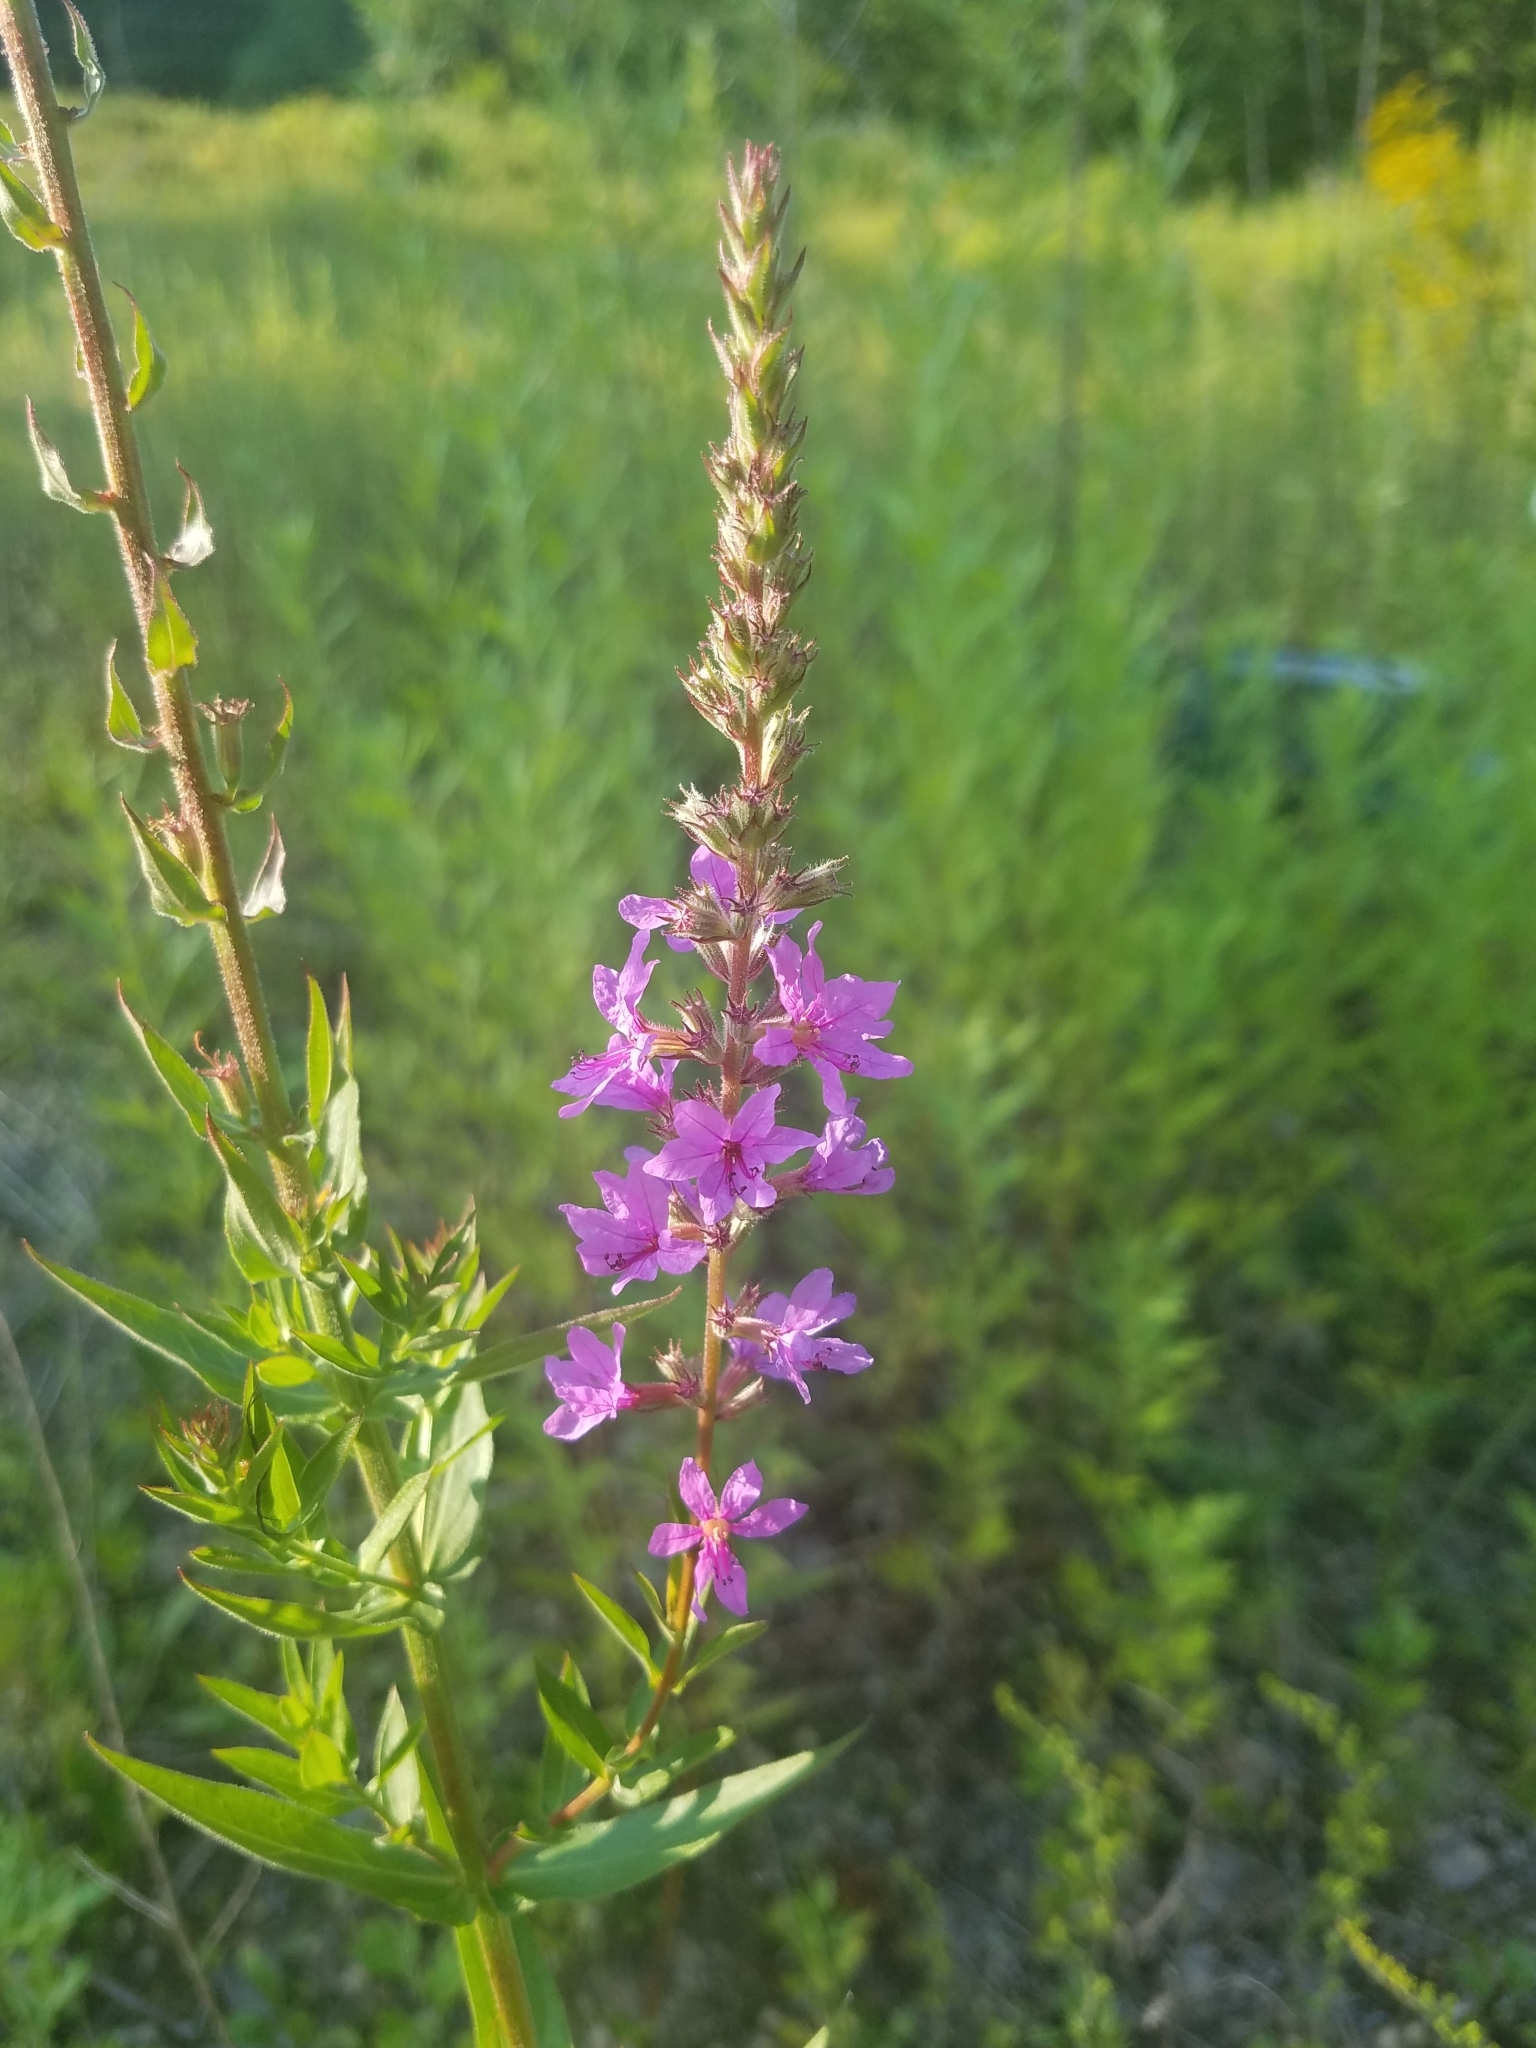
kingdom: Plantae
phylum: Tracheophyta
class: Magnoliopsida
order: Myrtales
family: Lythraceae
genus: Lythrum
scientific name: Lythrum salicaria
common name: Purple loosestrife
